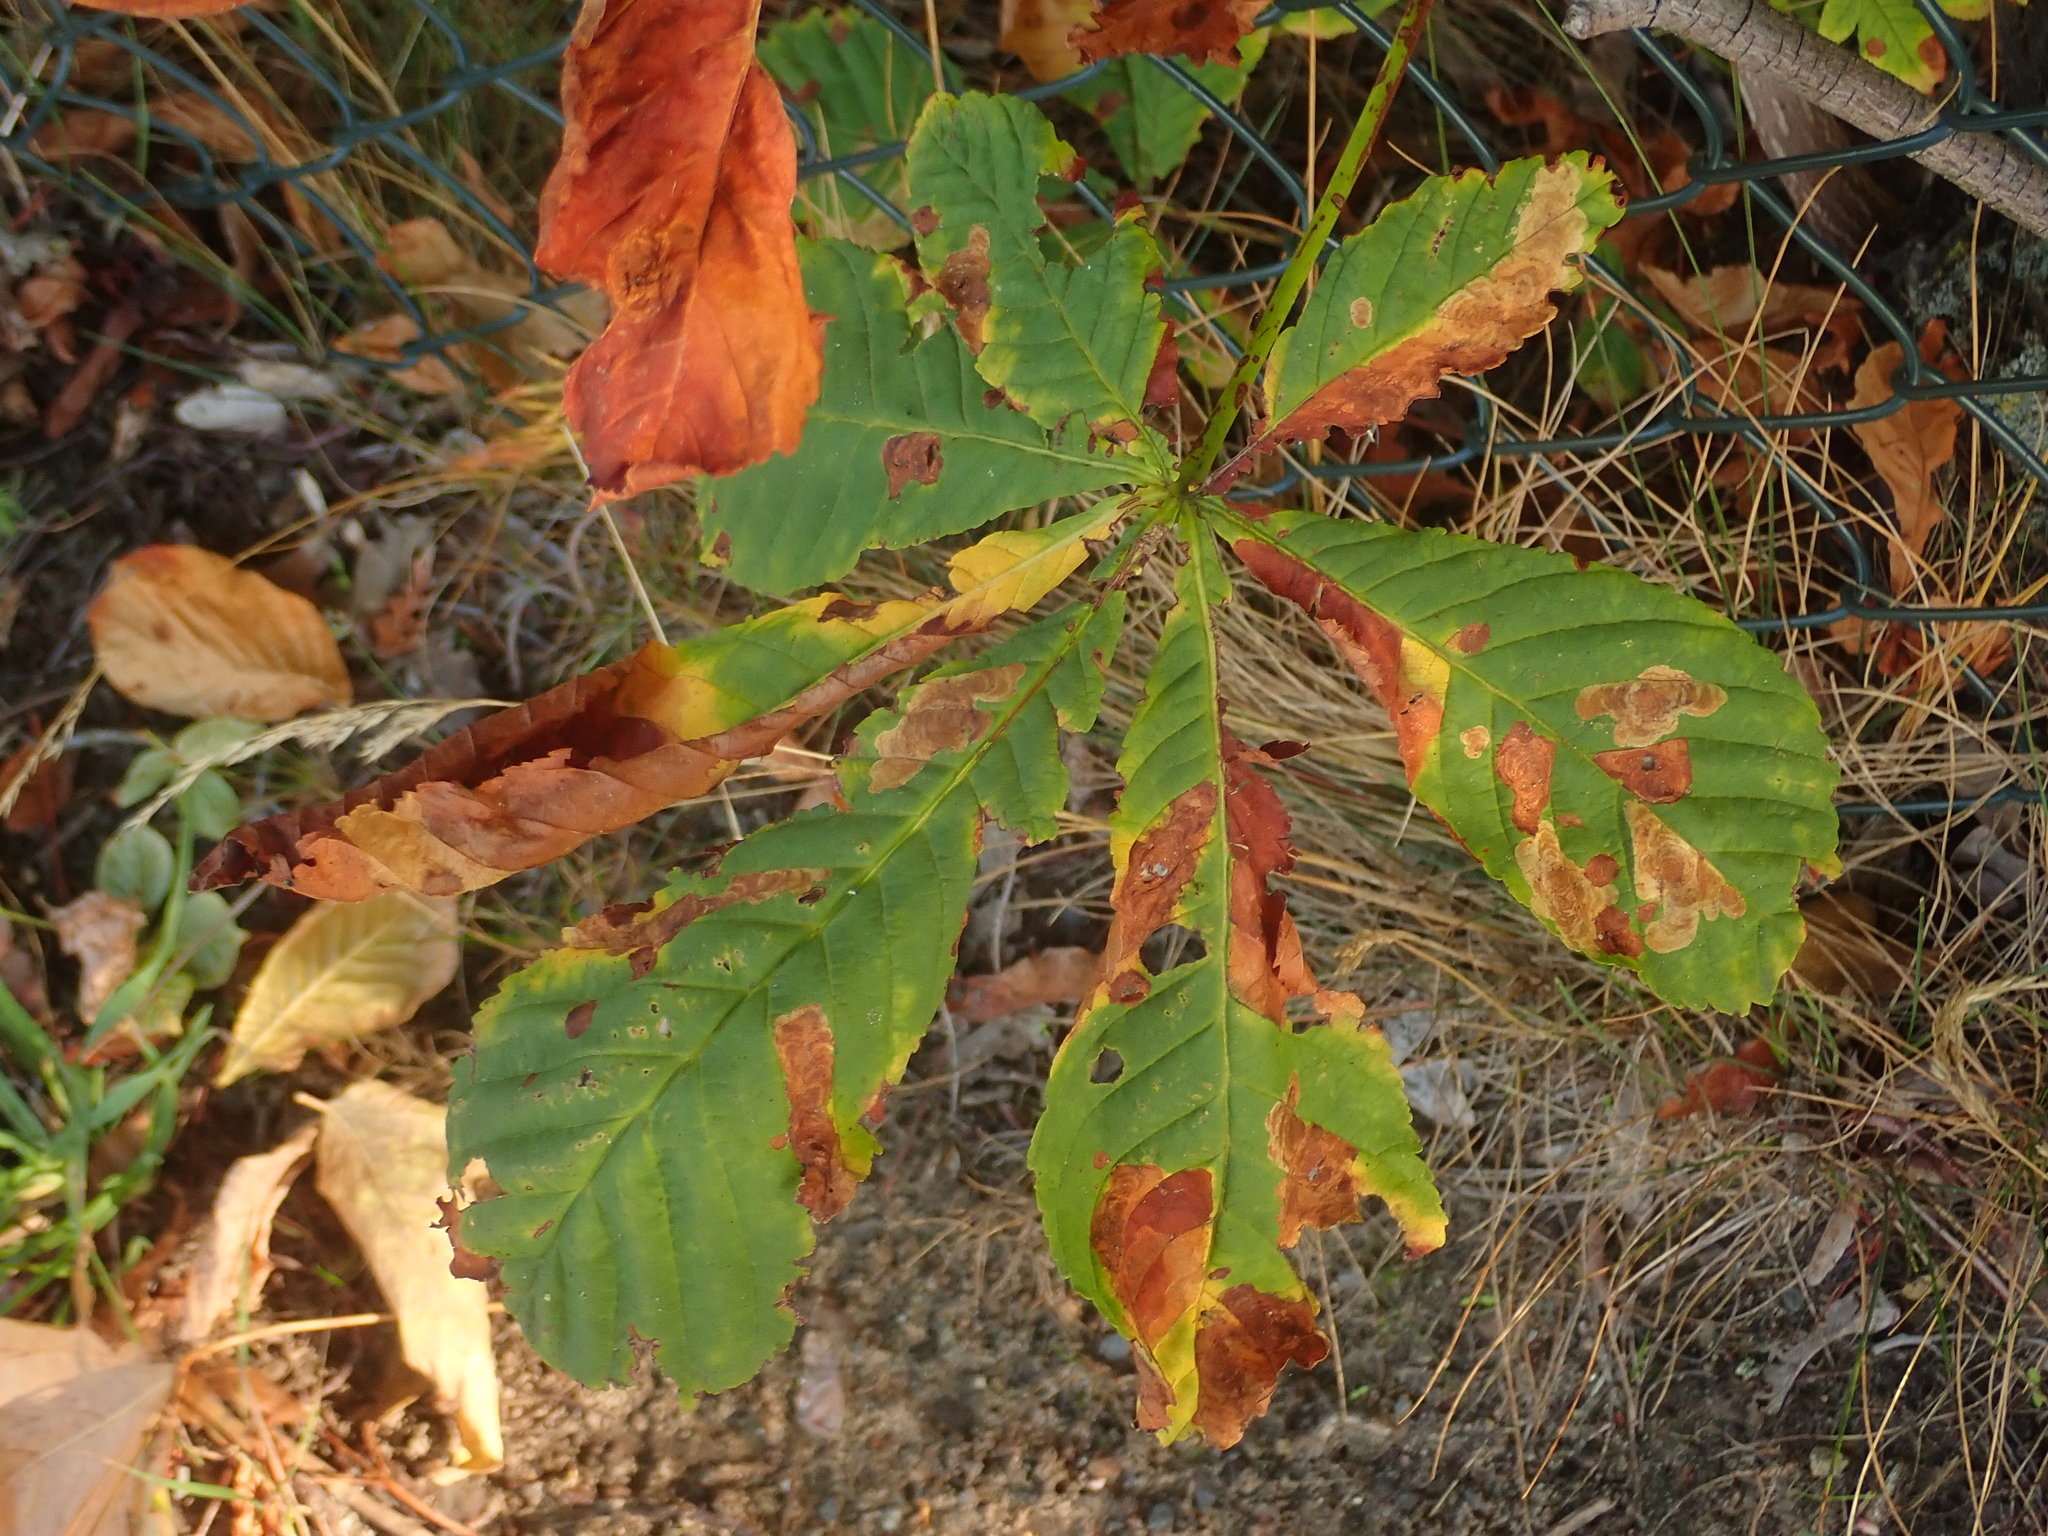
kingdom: Plantae
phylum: Tracheophyta
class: Magnoliopsida
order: Sapindales
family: Sapindaceae
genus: Aesculus
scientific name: Aesculus hippocastanum
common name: Horse-chestnut
